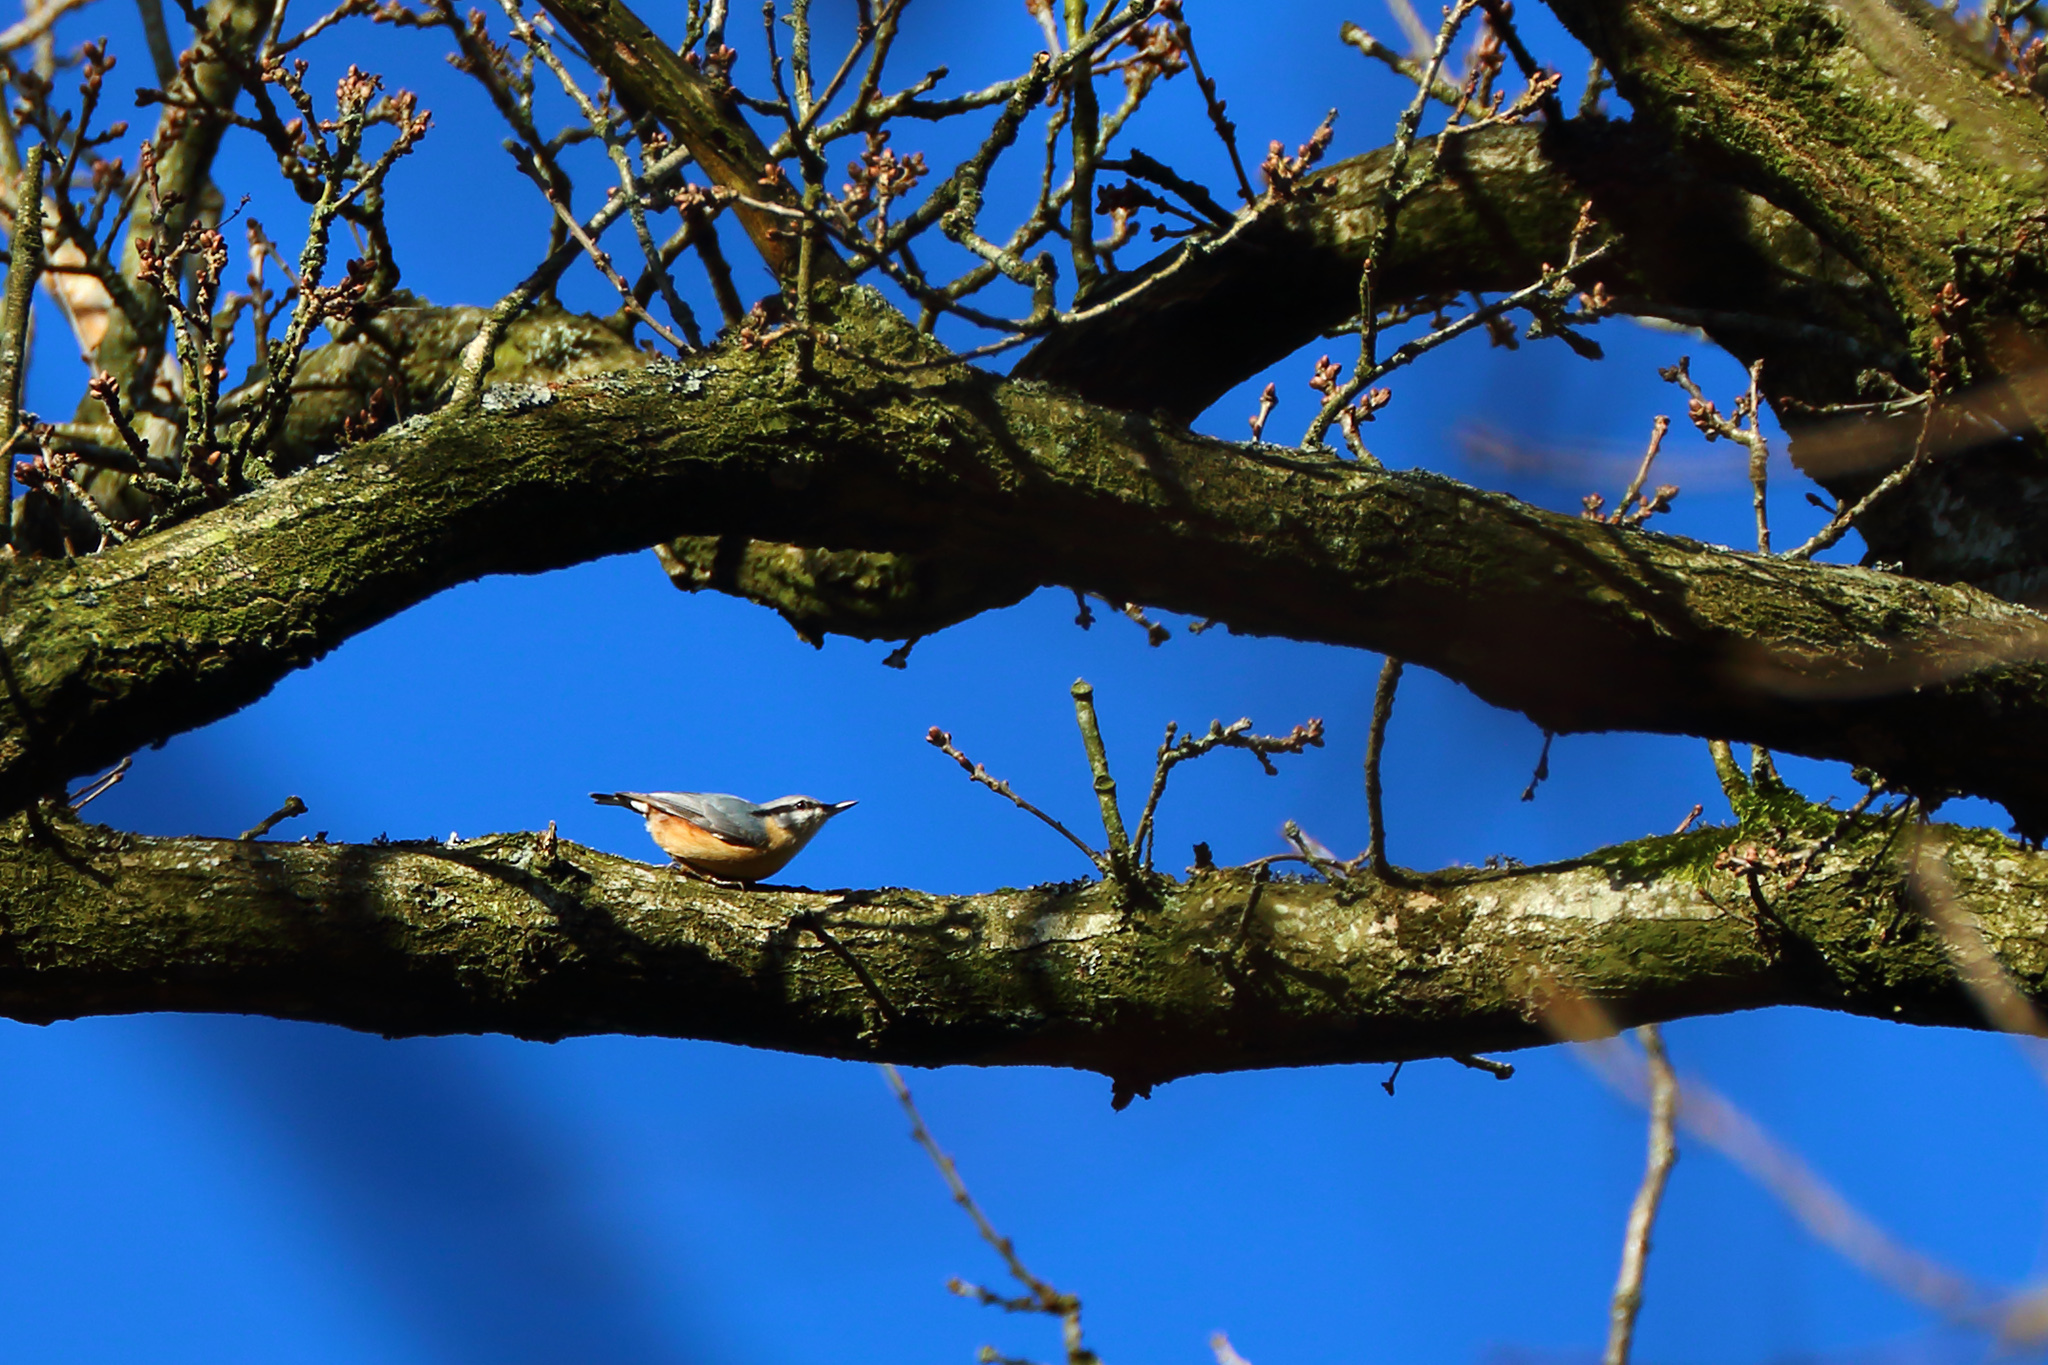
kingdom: Animalia
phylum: Chordata
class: Aves
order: Passeriformes
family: Sittidae
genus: Sitta
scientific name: Sitta europaea
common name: Eurasian nuthatch
